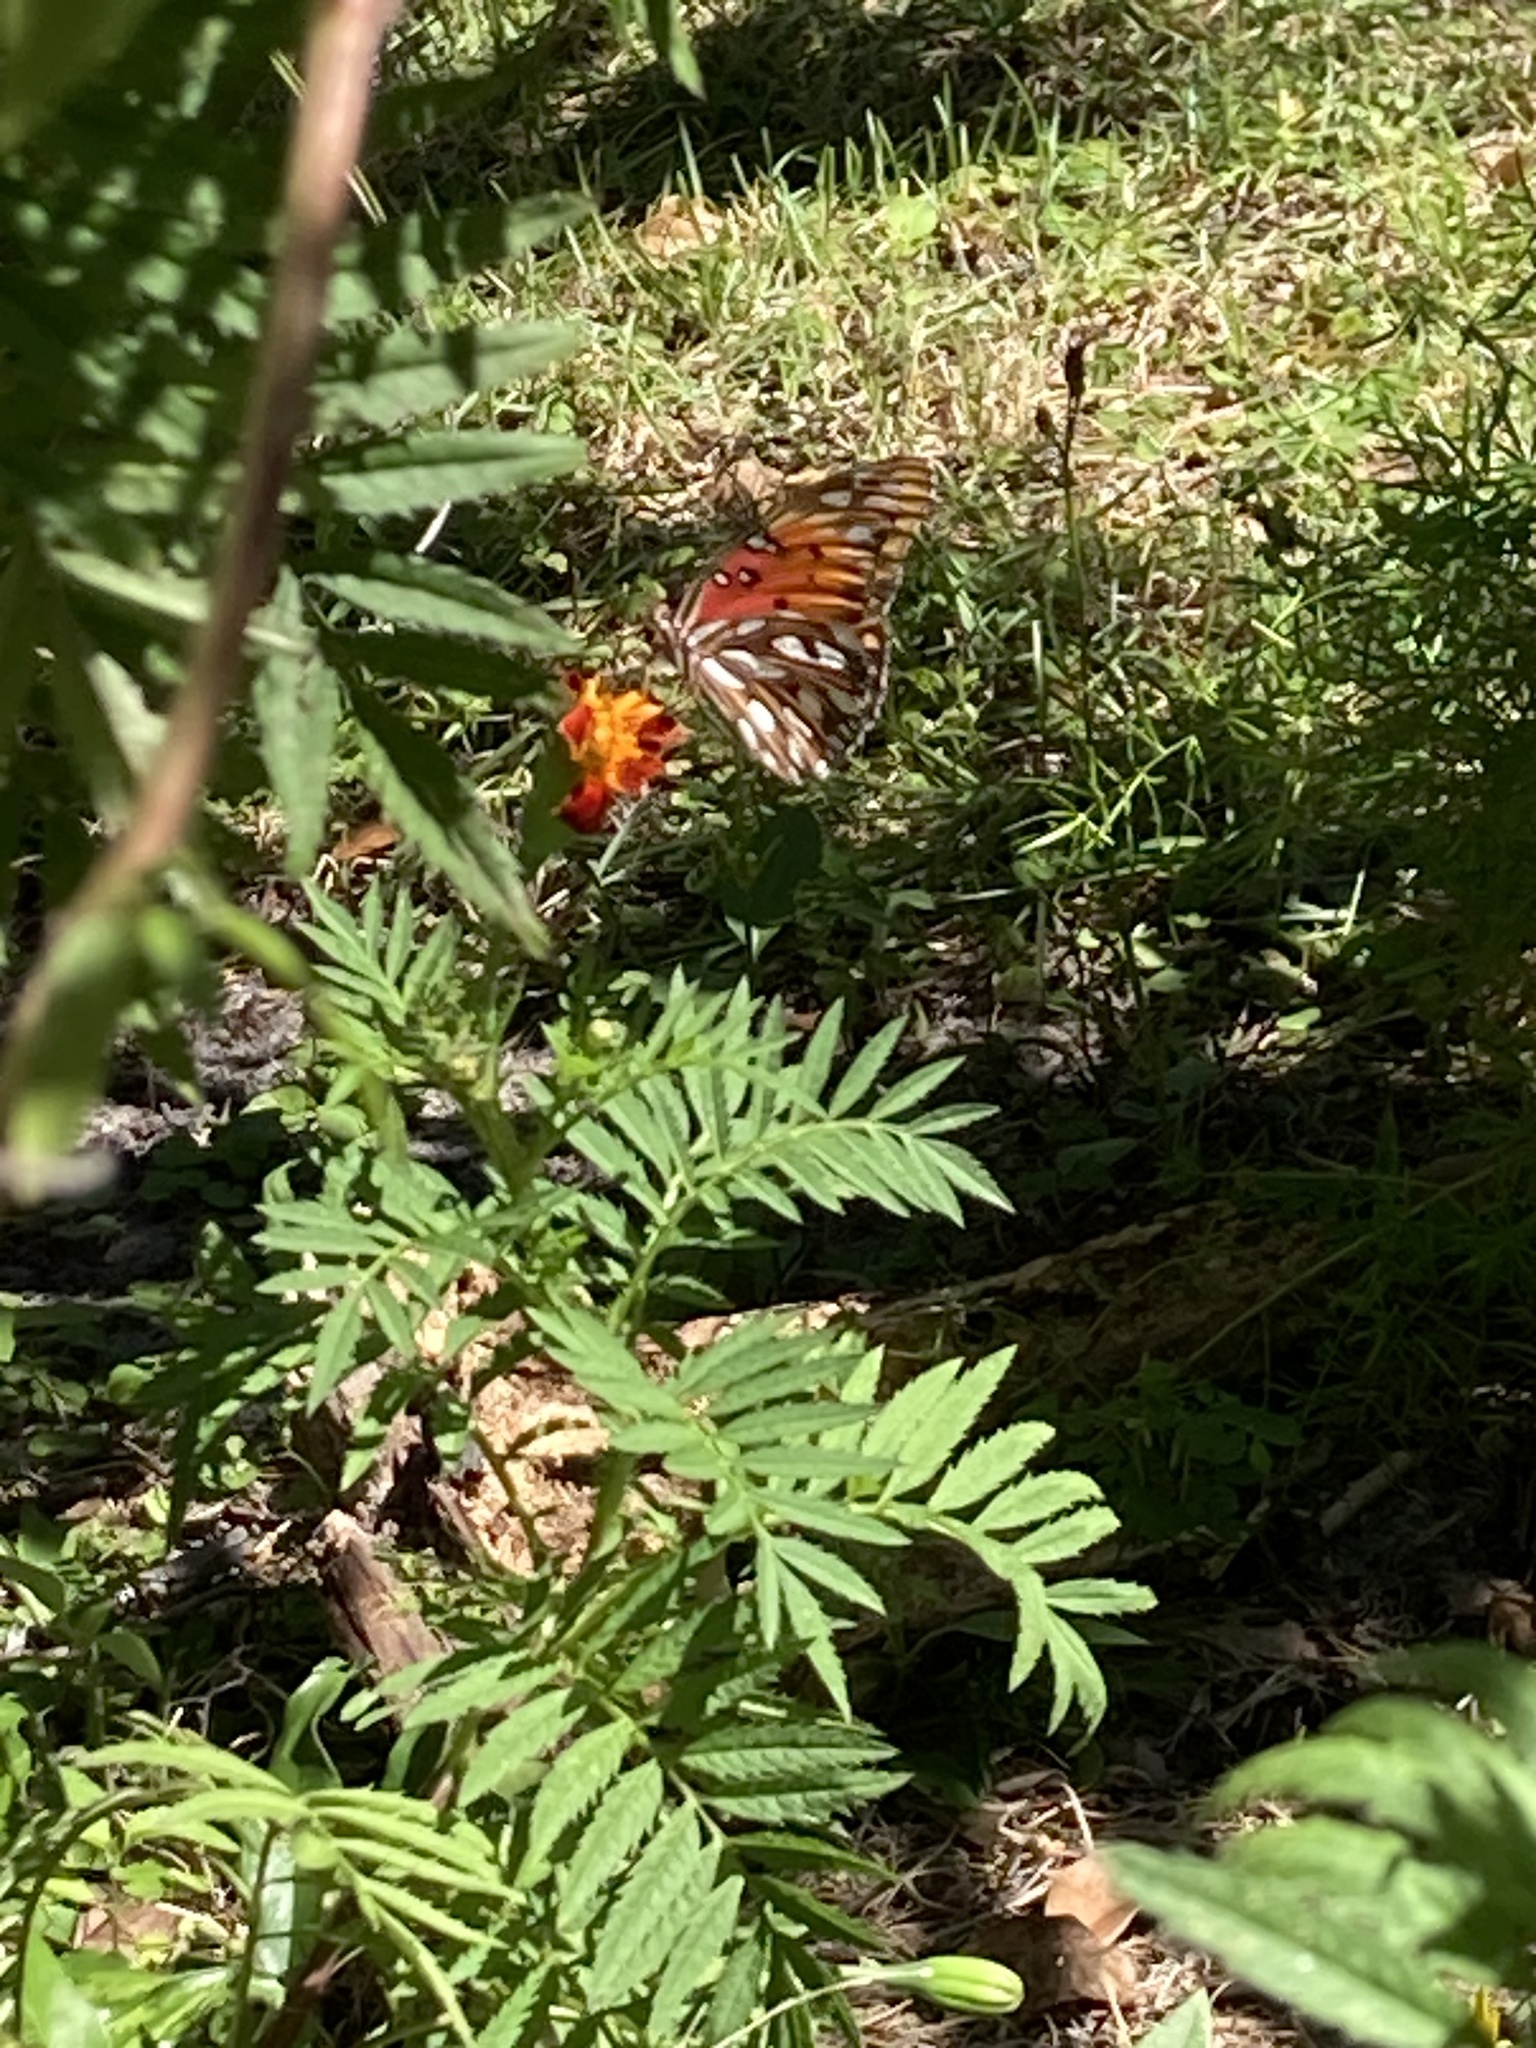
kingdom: Animalia
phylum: Arthropoda
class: Insecta
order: Lepidoptera
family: Nymphalidae
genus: Dione
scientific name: Dione vanillae
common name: Gulf fritillary
